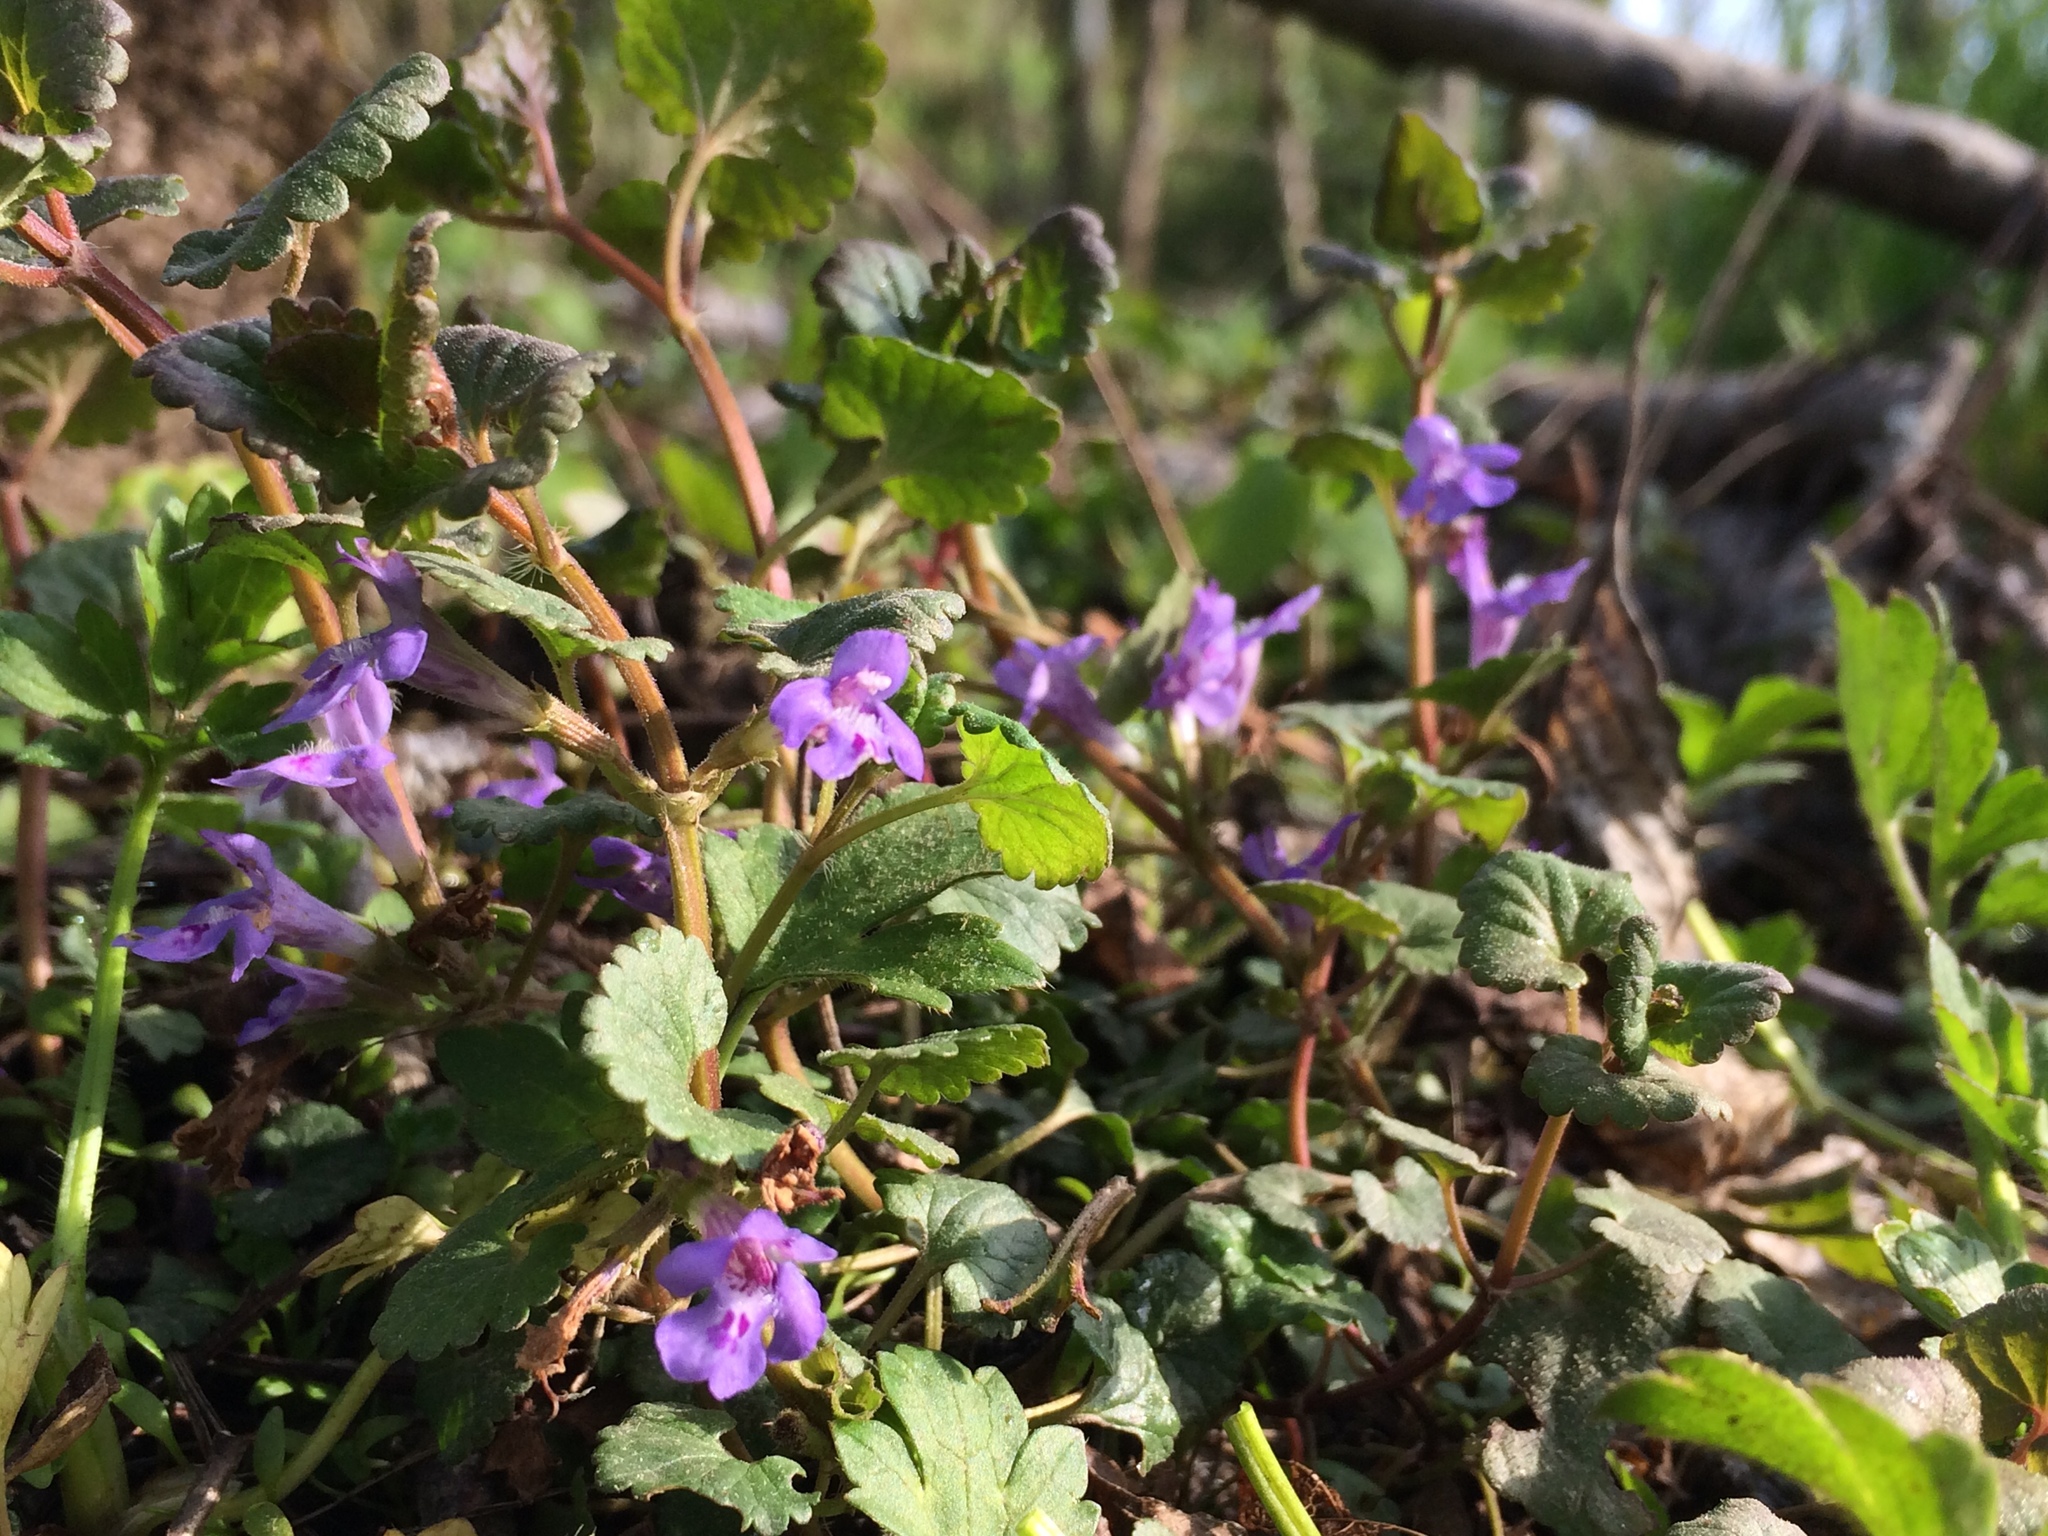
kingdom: Plantae
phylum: Tracheophyta
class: Magnoliopsida
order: Lamiales
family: Lamiaceae
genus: Glechoma
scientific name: Glechoma hederacea
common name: Ground ivy
